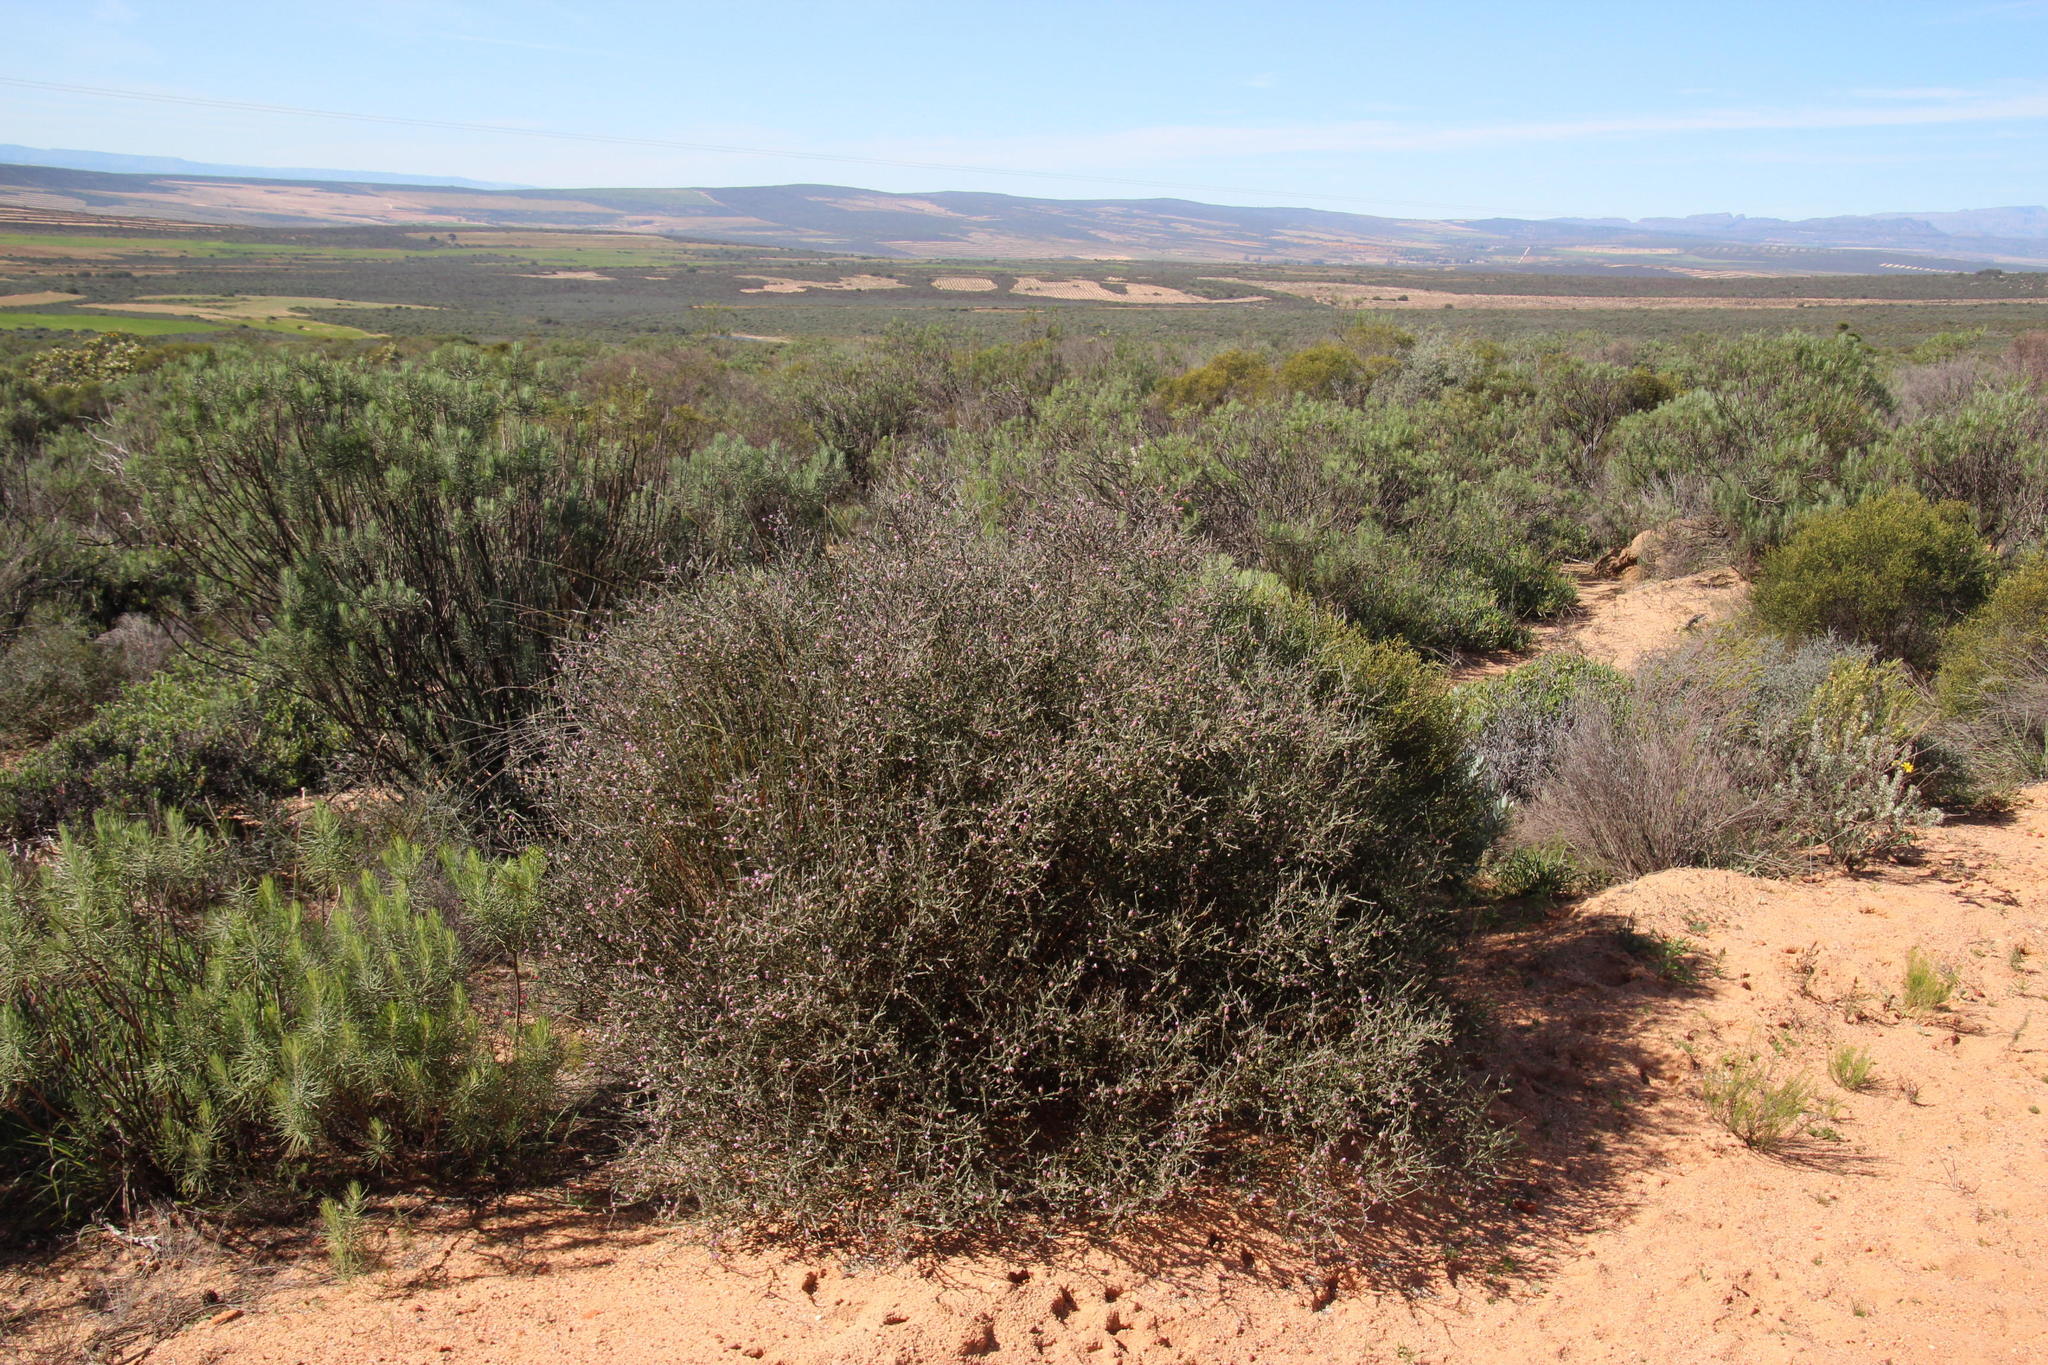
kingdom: Plantae
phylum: Tracheophyta
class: Magnoliopsida
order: Fabales
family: Polygalaceae
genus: Muraltia
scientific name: Muraltia spinosa
